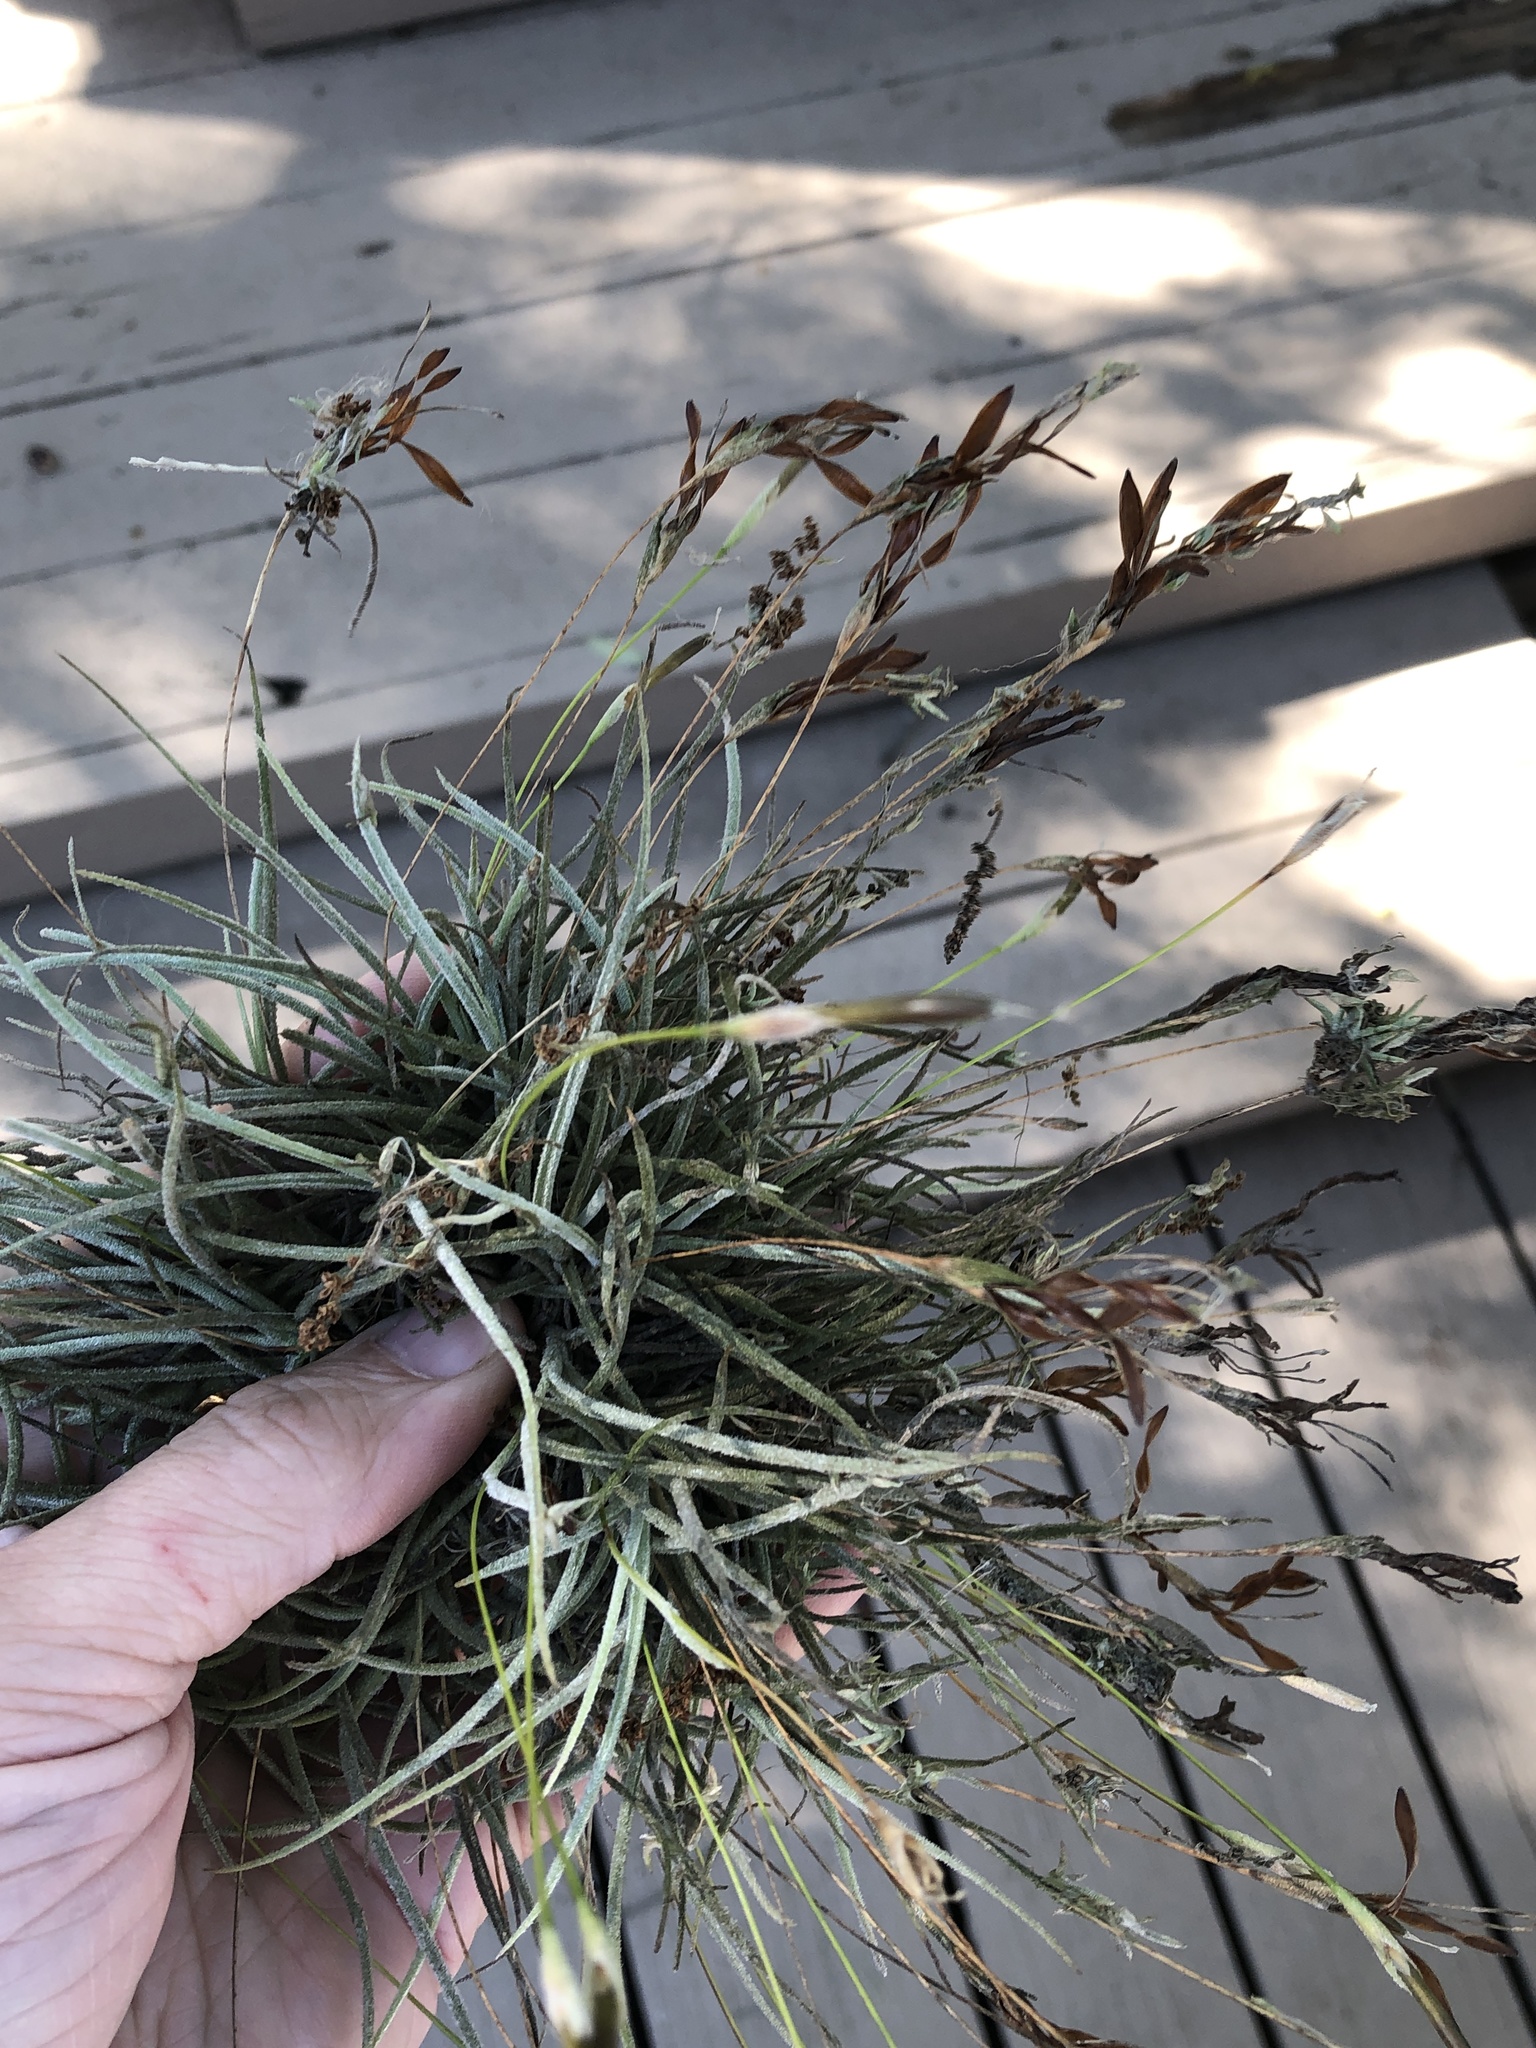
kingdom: Plantae
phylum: Tracheophyta
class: Liliopsida
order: Poales
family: Bromeliaceae
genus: Tillandsia
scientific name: Tillandsia recurvata
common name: Small ballmoss
